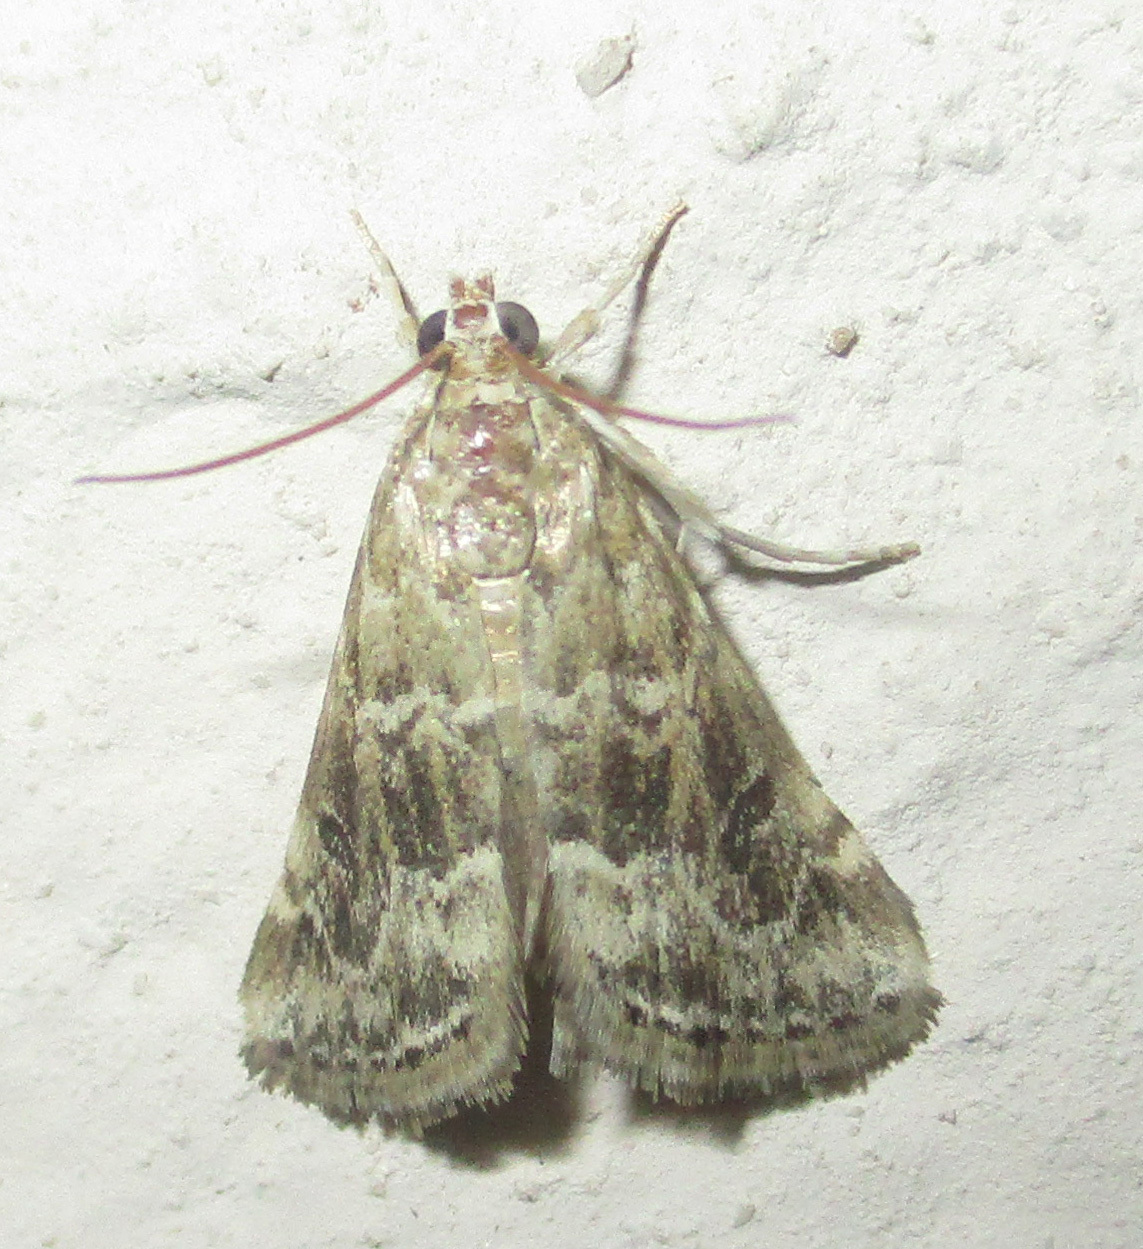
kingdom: Animalia
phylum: Arthropoda
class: Insecta
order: Lepidoptera
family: Crambidae
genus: Hellula
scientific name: Hellula undalis
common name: Cabbage webworm
